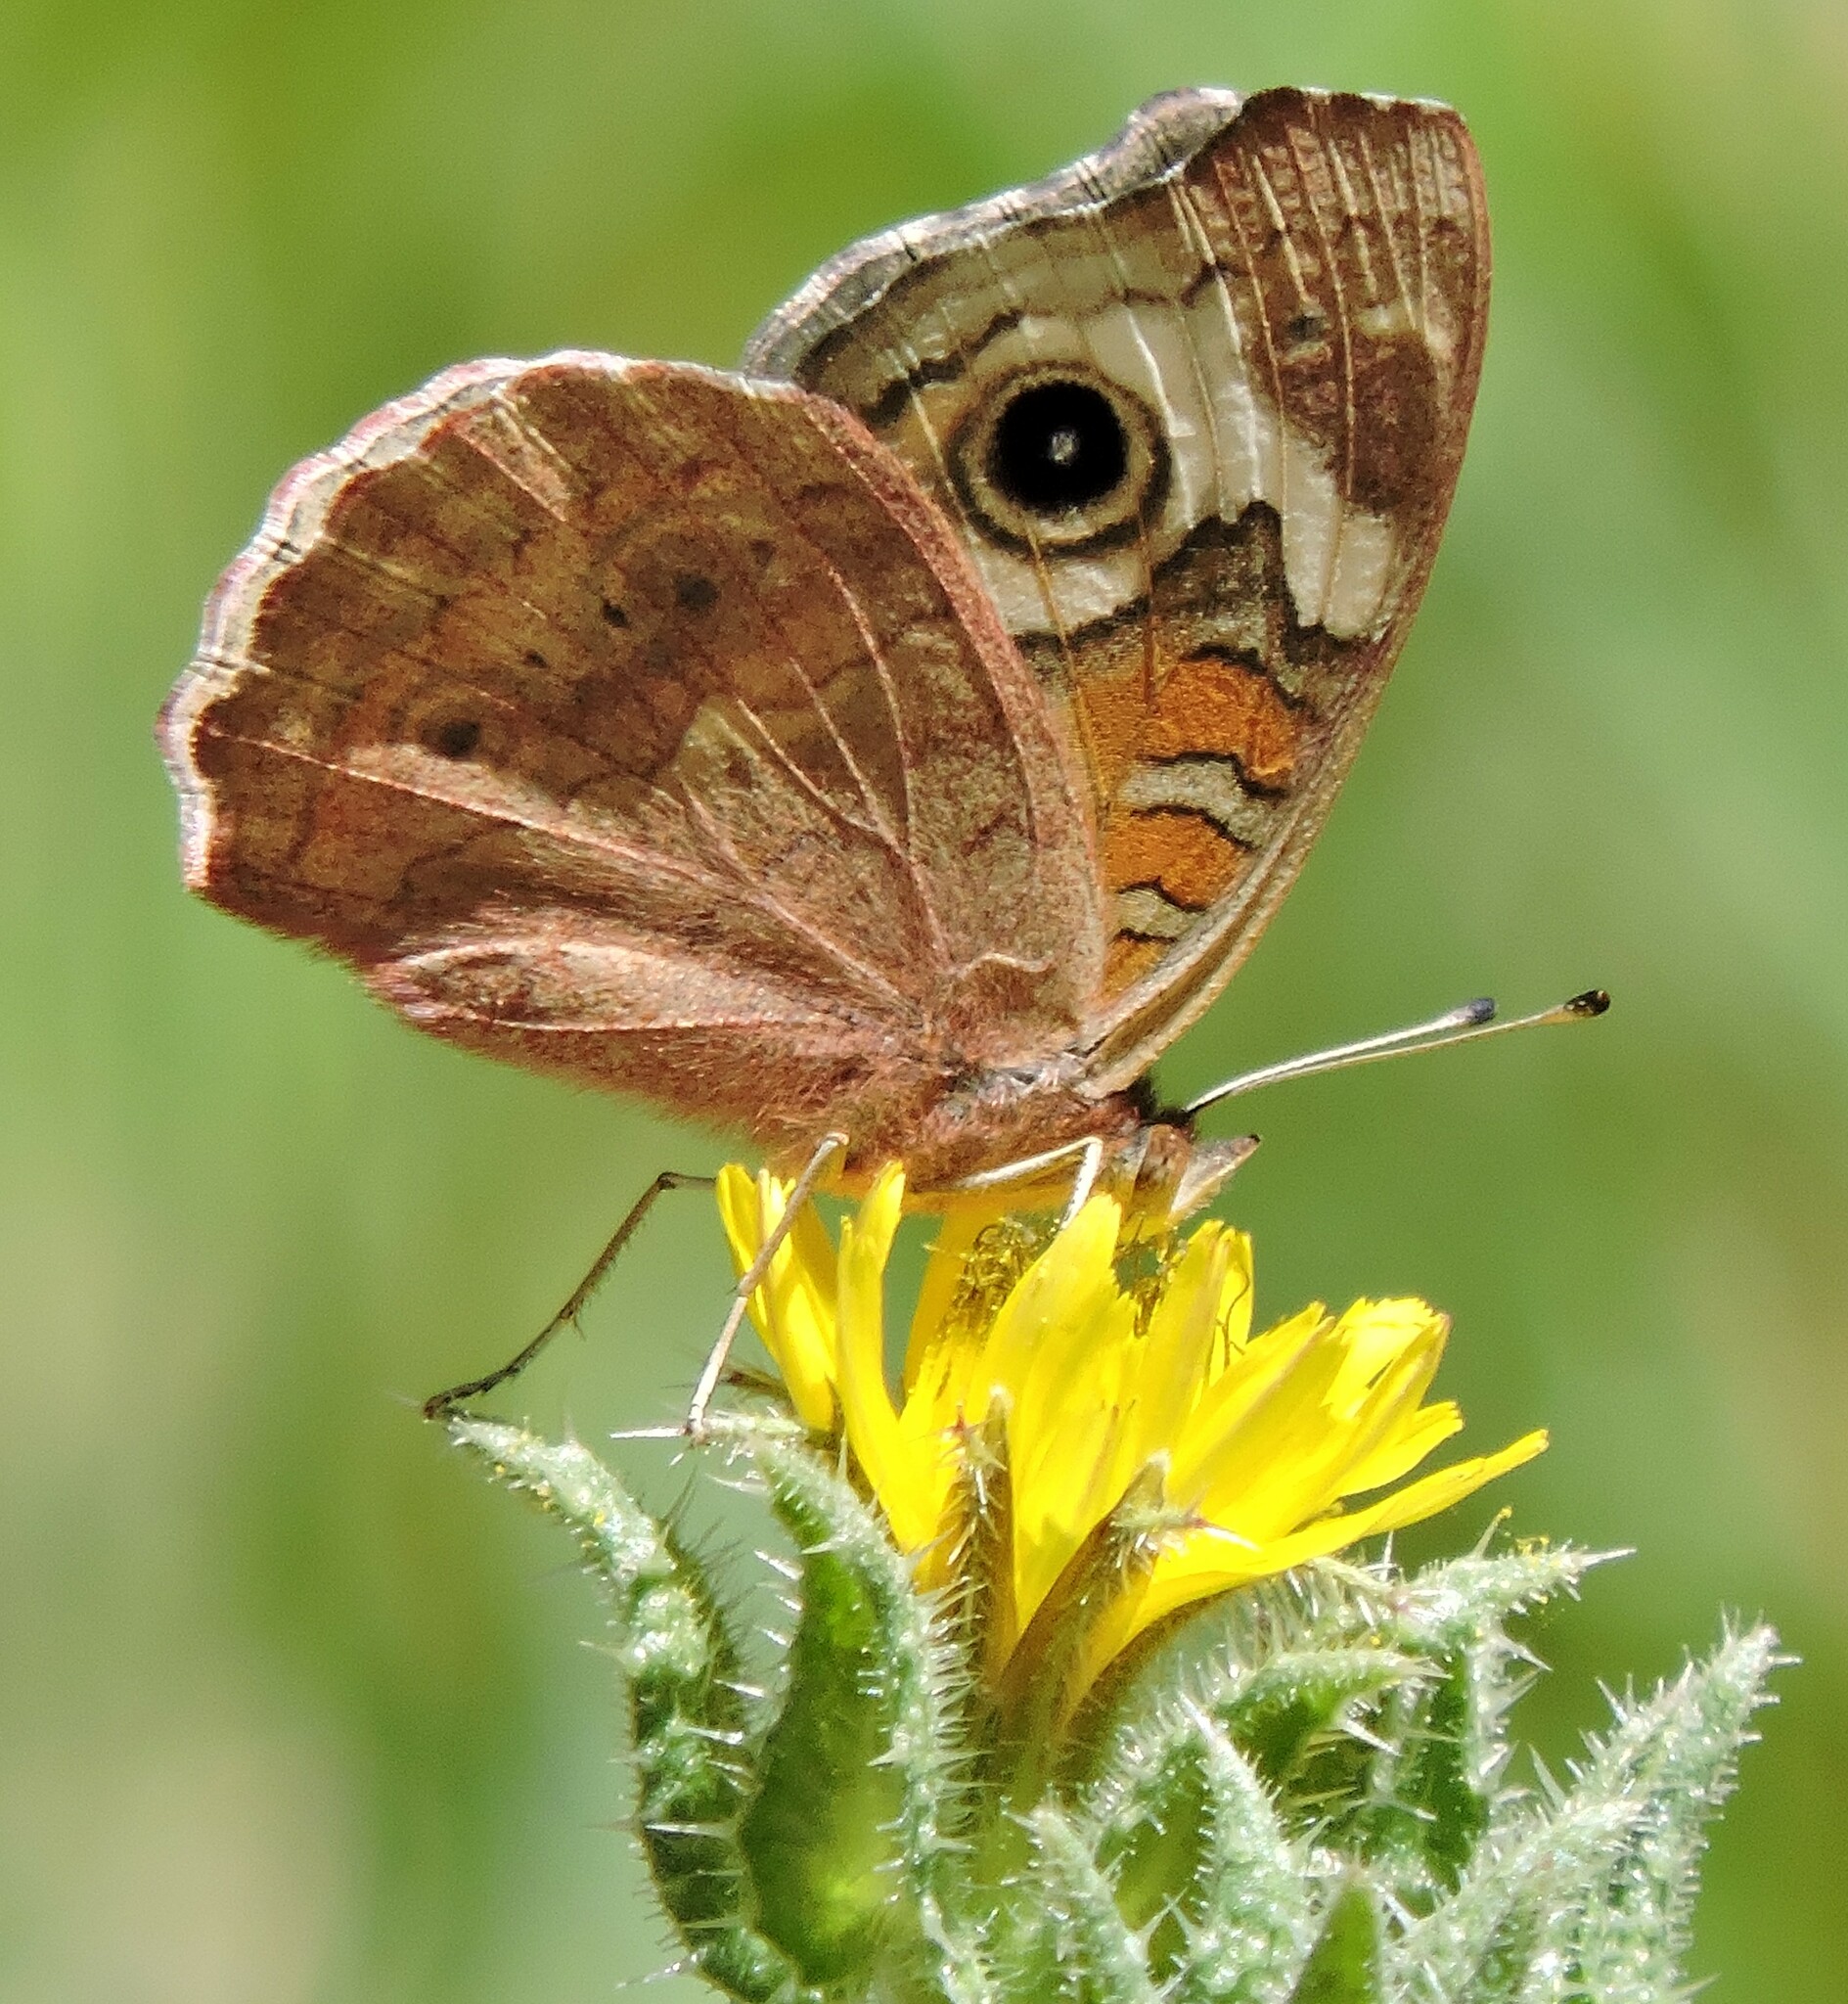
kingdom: Animalia
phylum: Arthropoda
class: Insecta
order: Lepidoptera
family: Nymphalidae
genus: Junonia
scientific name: Junonia grisea
